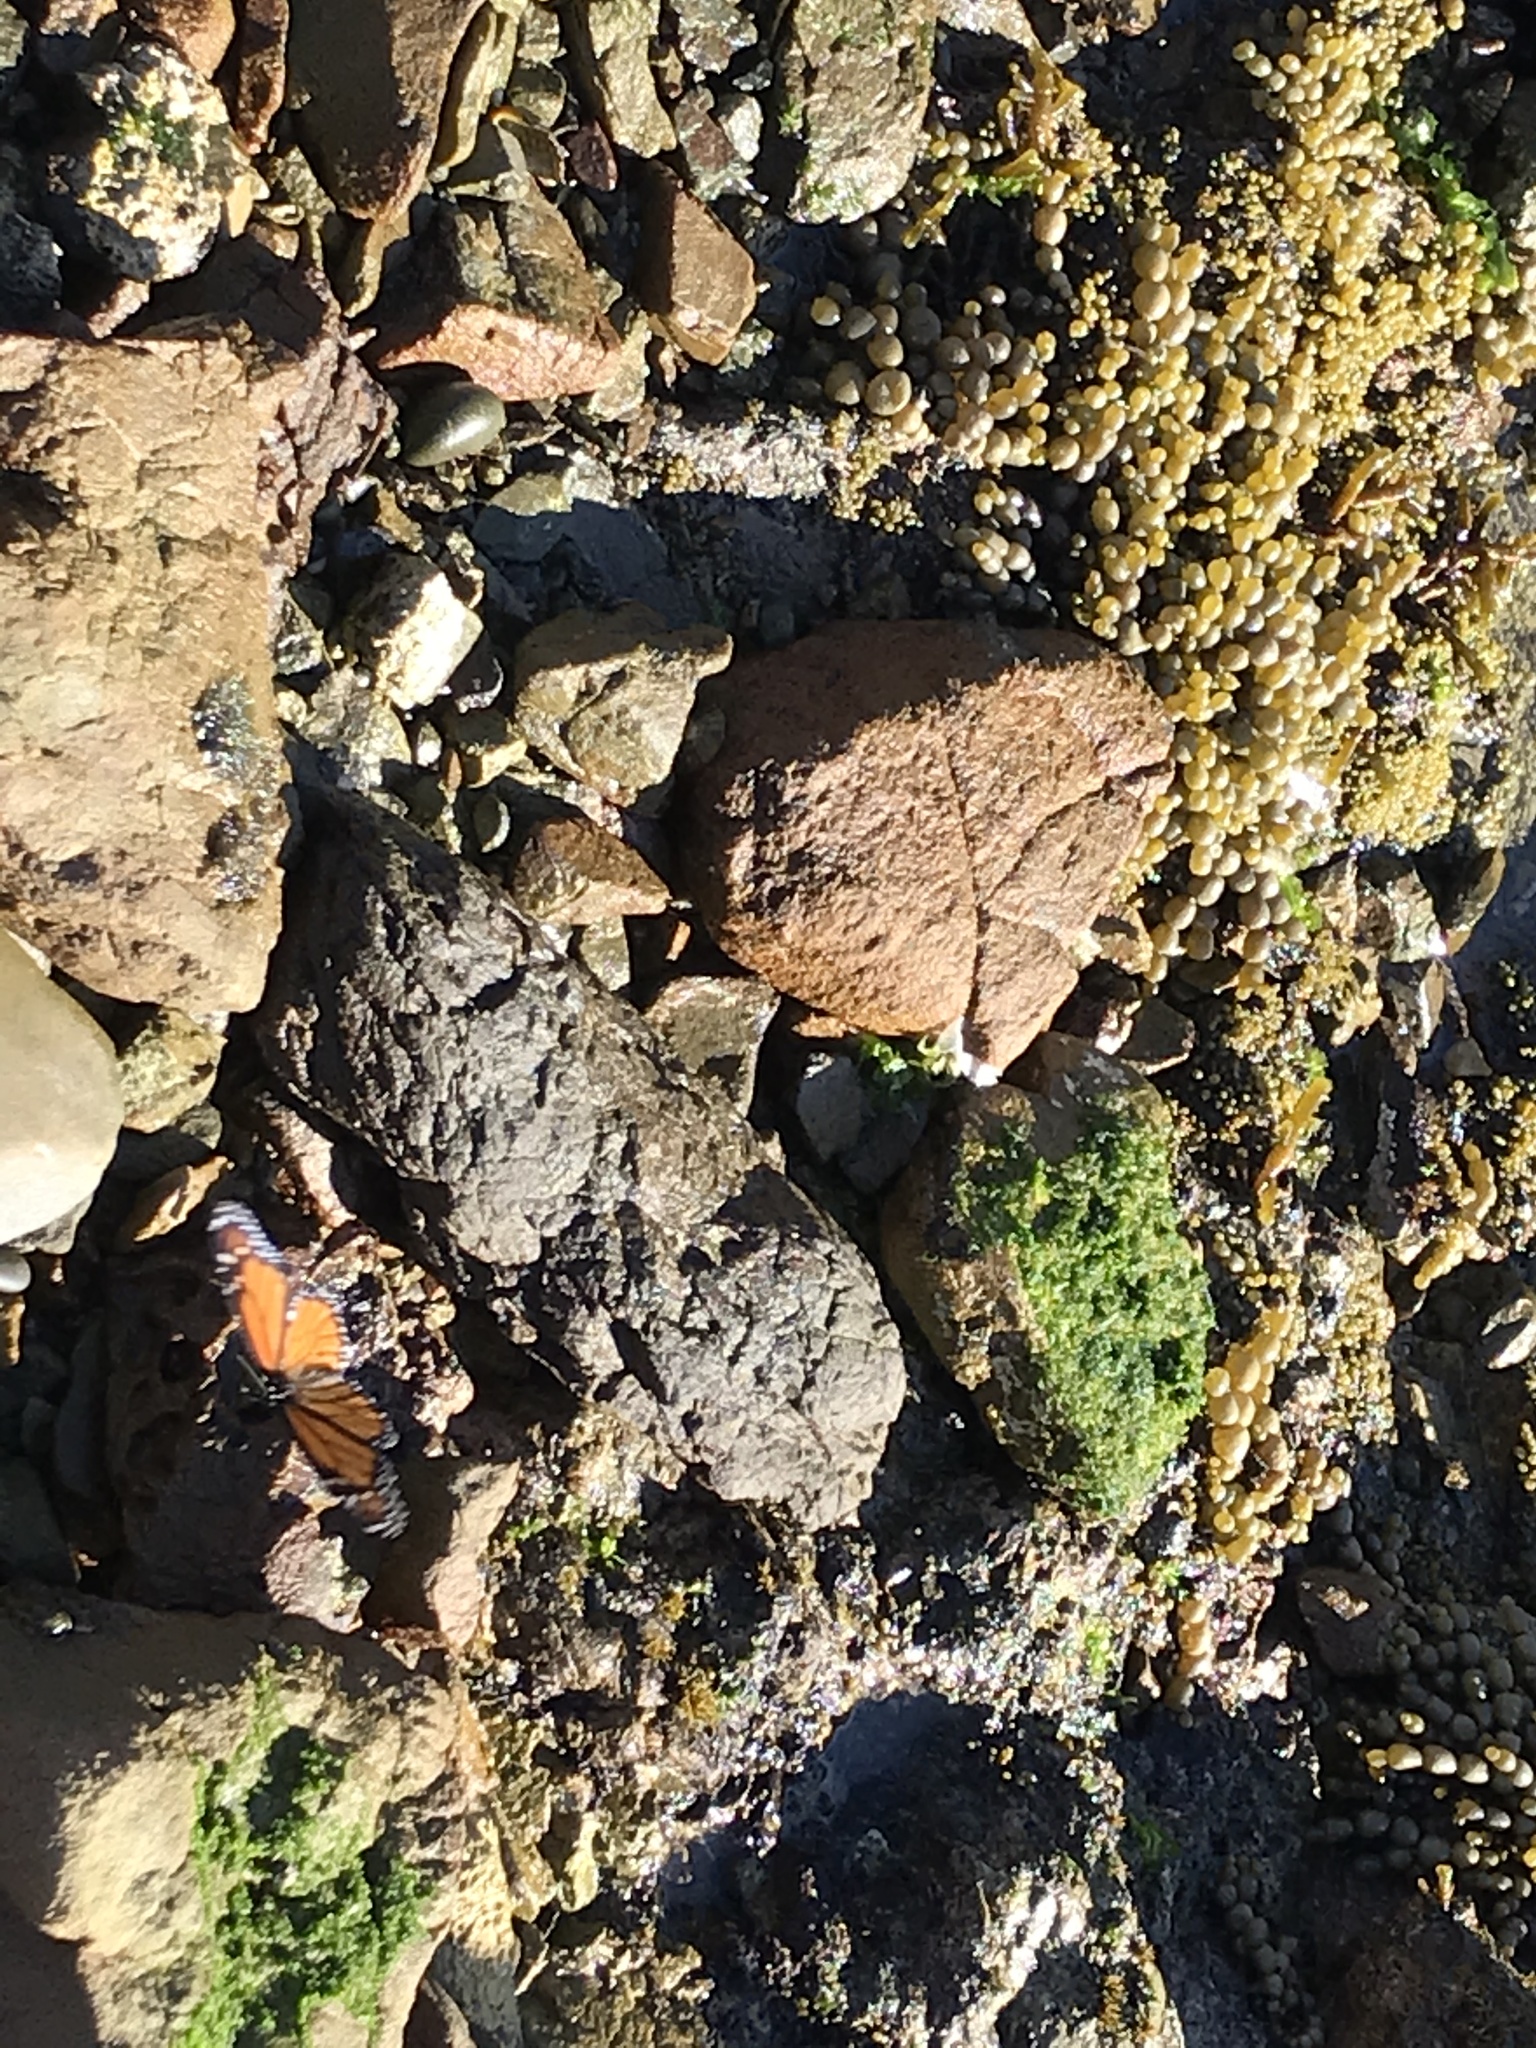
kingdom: Chromista
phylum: Ochrophyta
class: Phaeophyceae
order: Fucales
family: Hormosiraceae
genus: Hormosira
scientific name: Hormosira banksii
